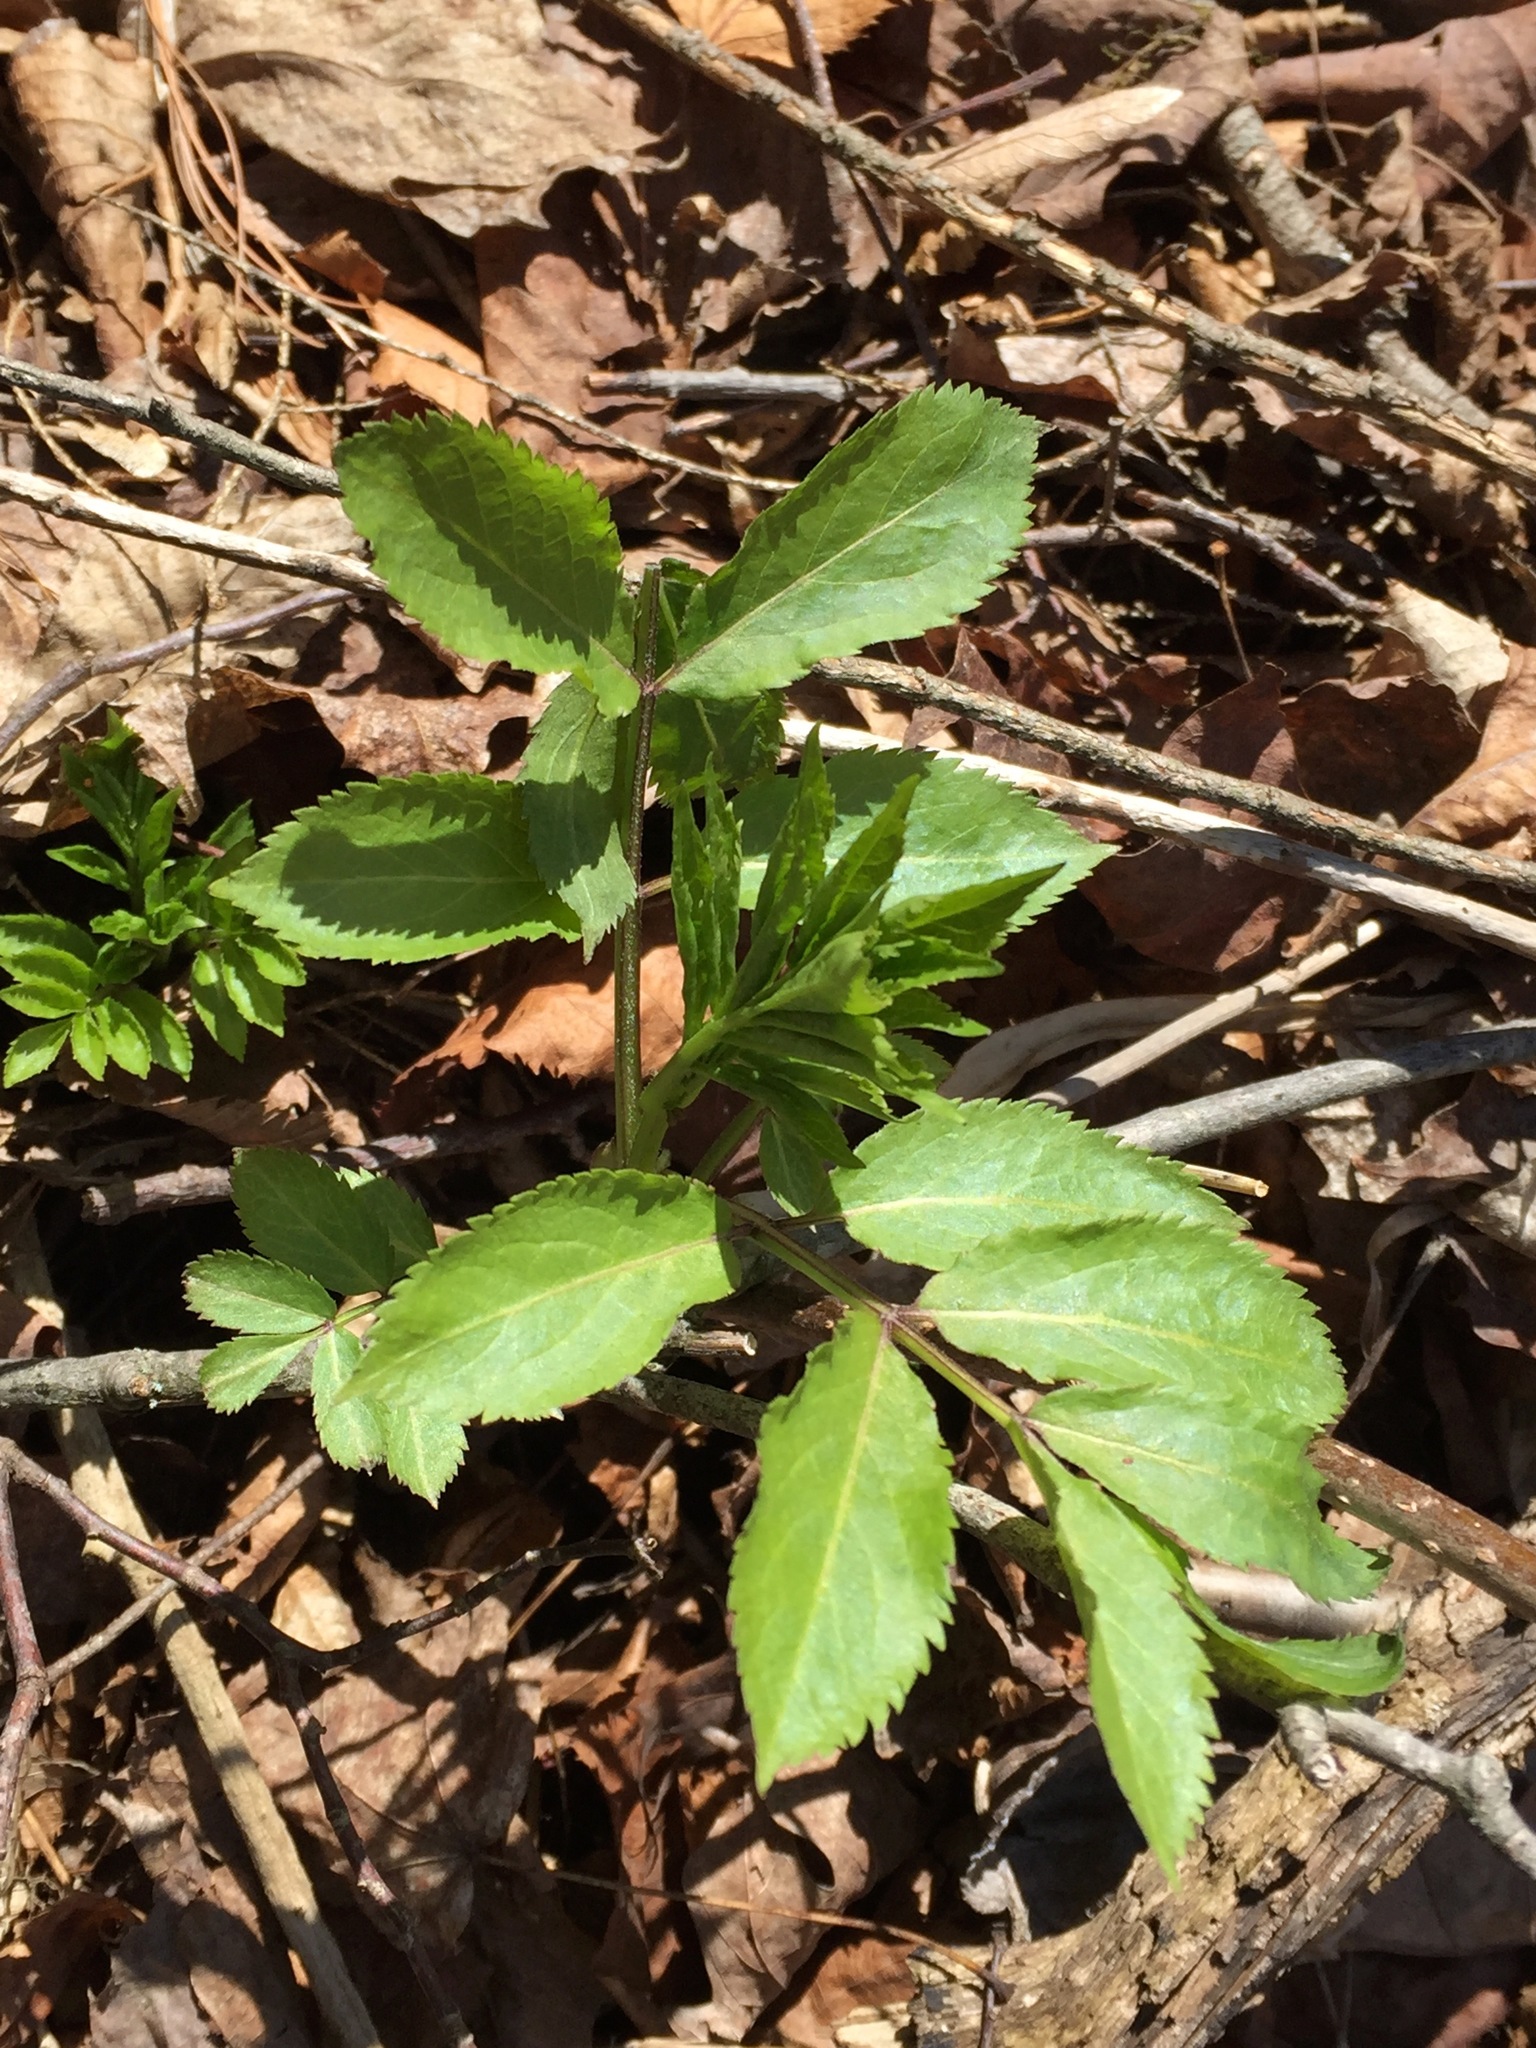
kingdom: Plantae
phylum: Tracheophyta
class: Magnoliopsida
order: Dipsacales
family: Viburnaceae
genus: Sambucus
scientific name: Sambucus racemosa
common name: Red-berried elder
